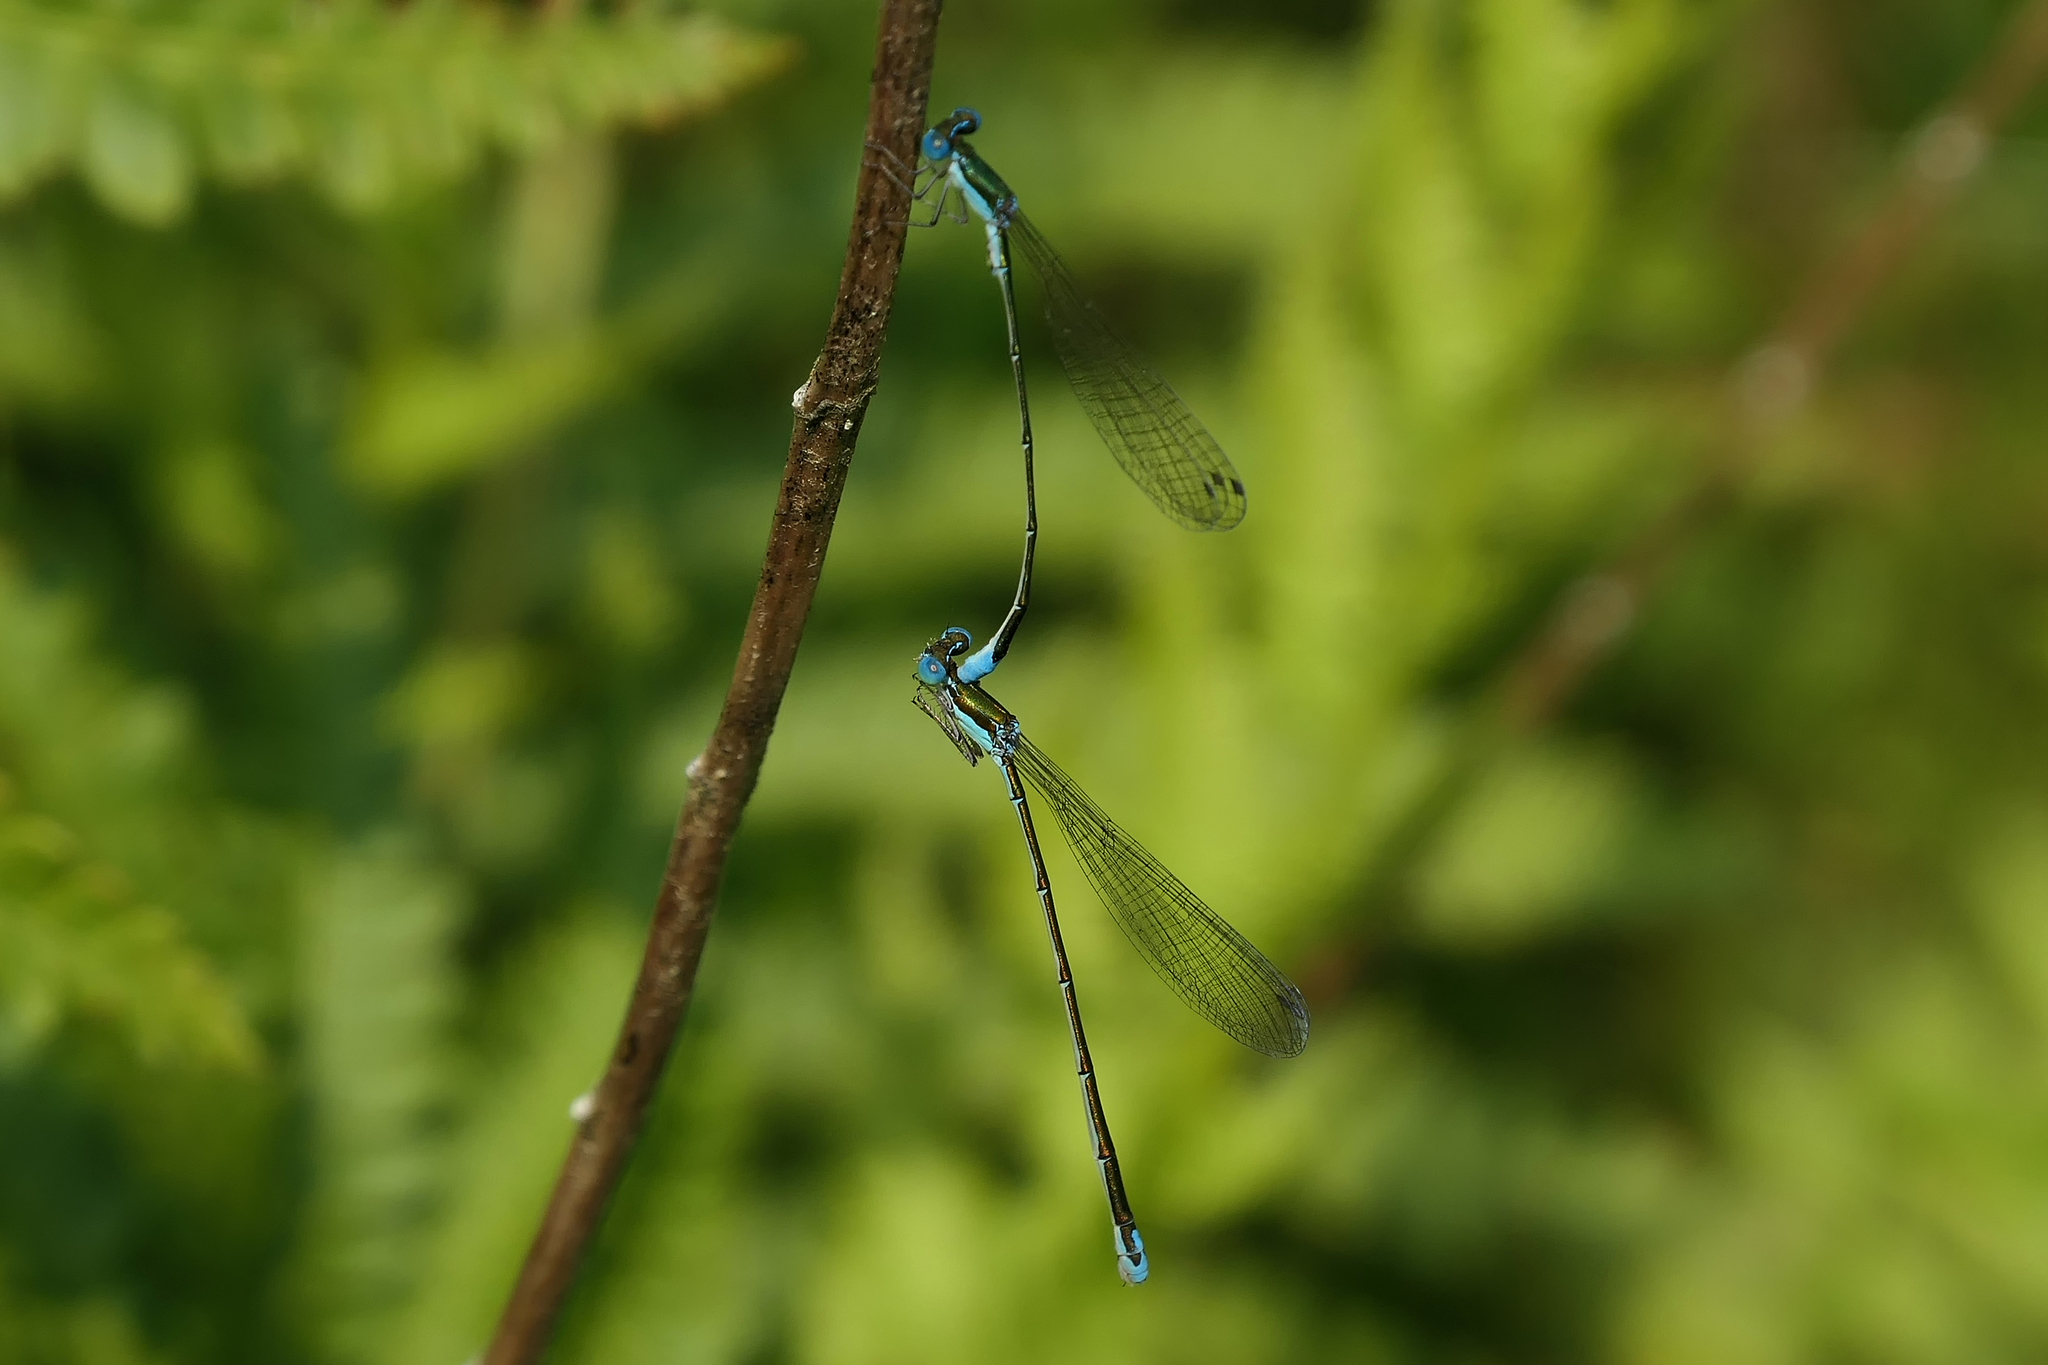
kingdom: Animalia
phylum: Arthropoda
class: Insecta
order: Odonata
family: Coenagrionidae
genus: Nehalennia
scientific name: Nehalennia gracilis
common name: Sphagnum sprite
